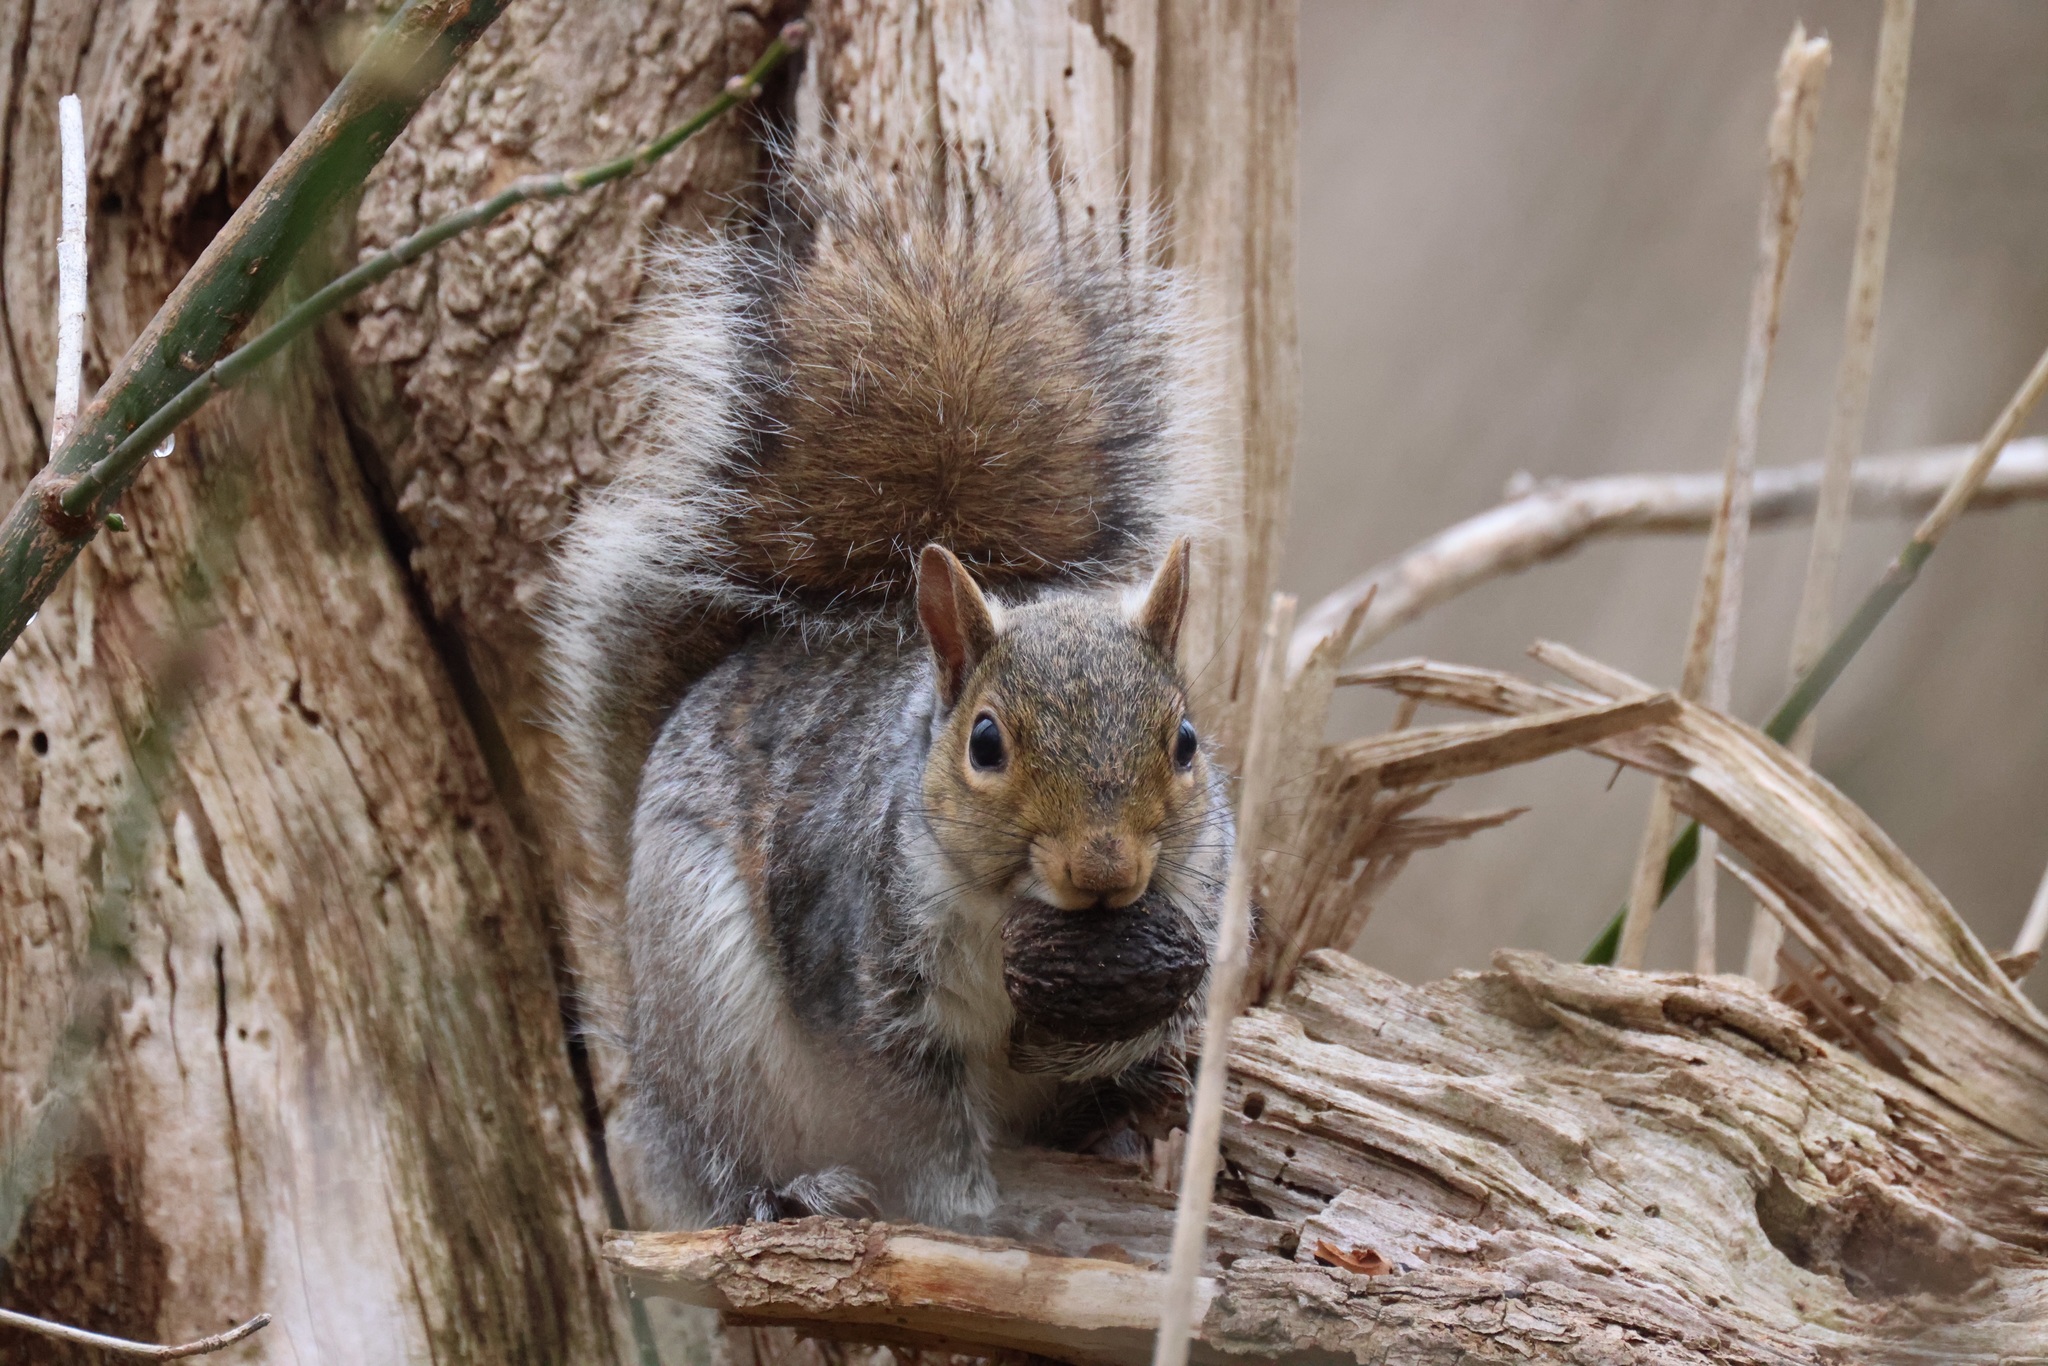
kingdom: Animalia
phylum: Chordata
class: Mammalia
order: Rodentia
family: Sciuridae
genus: Sciurus
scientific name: Sciurus carolinensis
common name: Eastern gray squirrel
